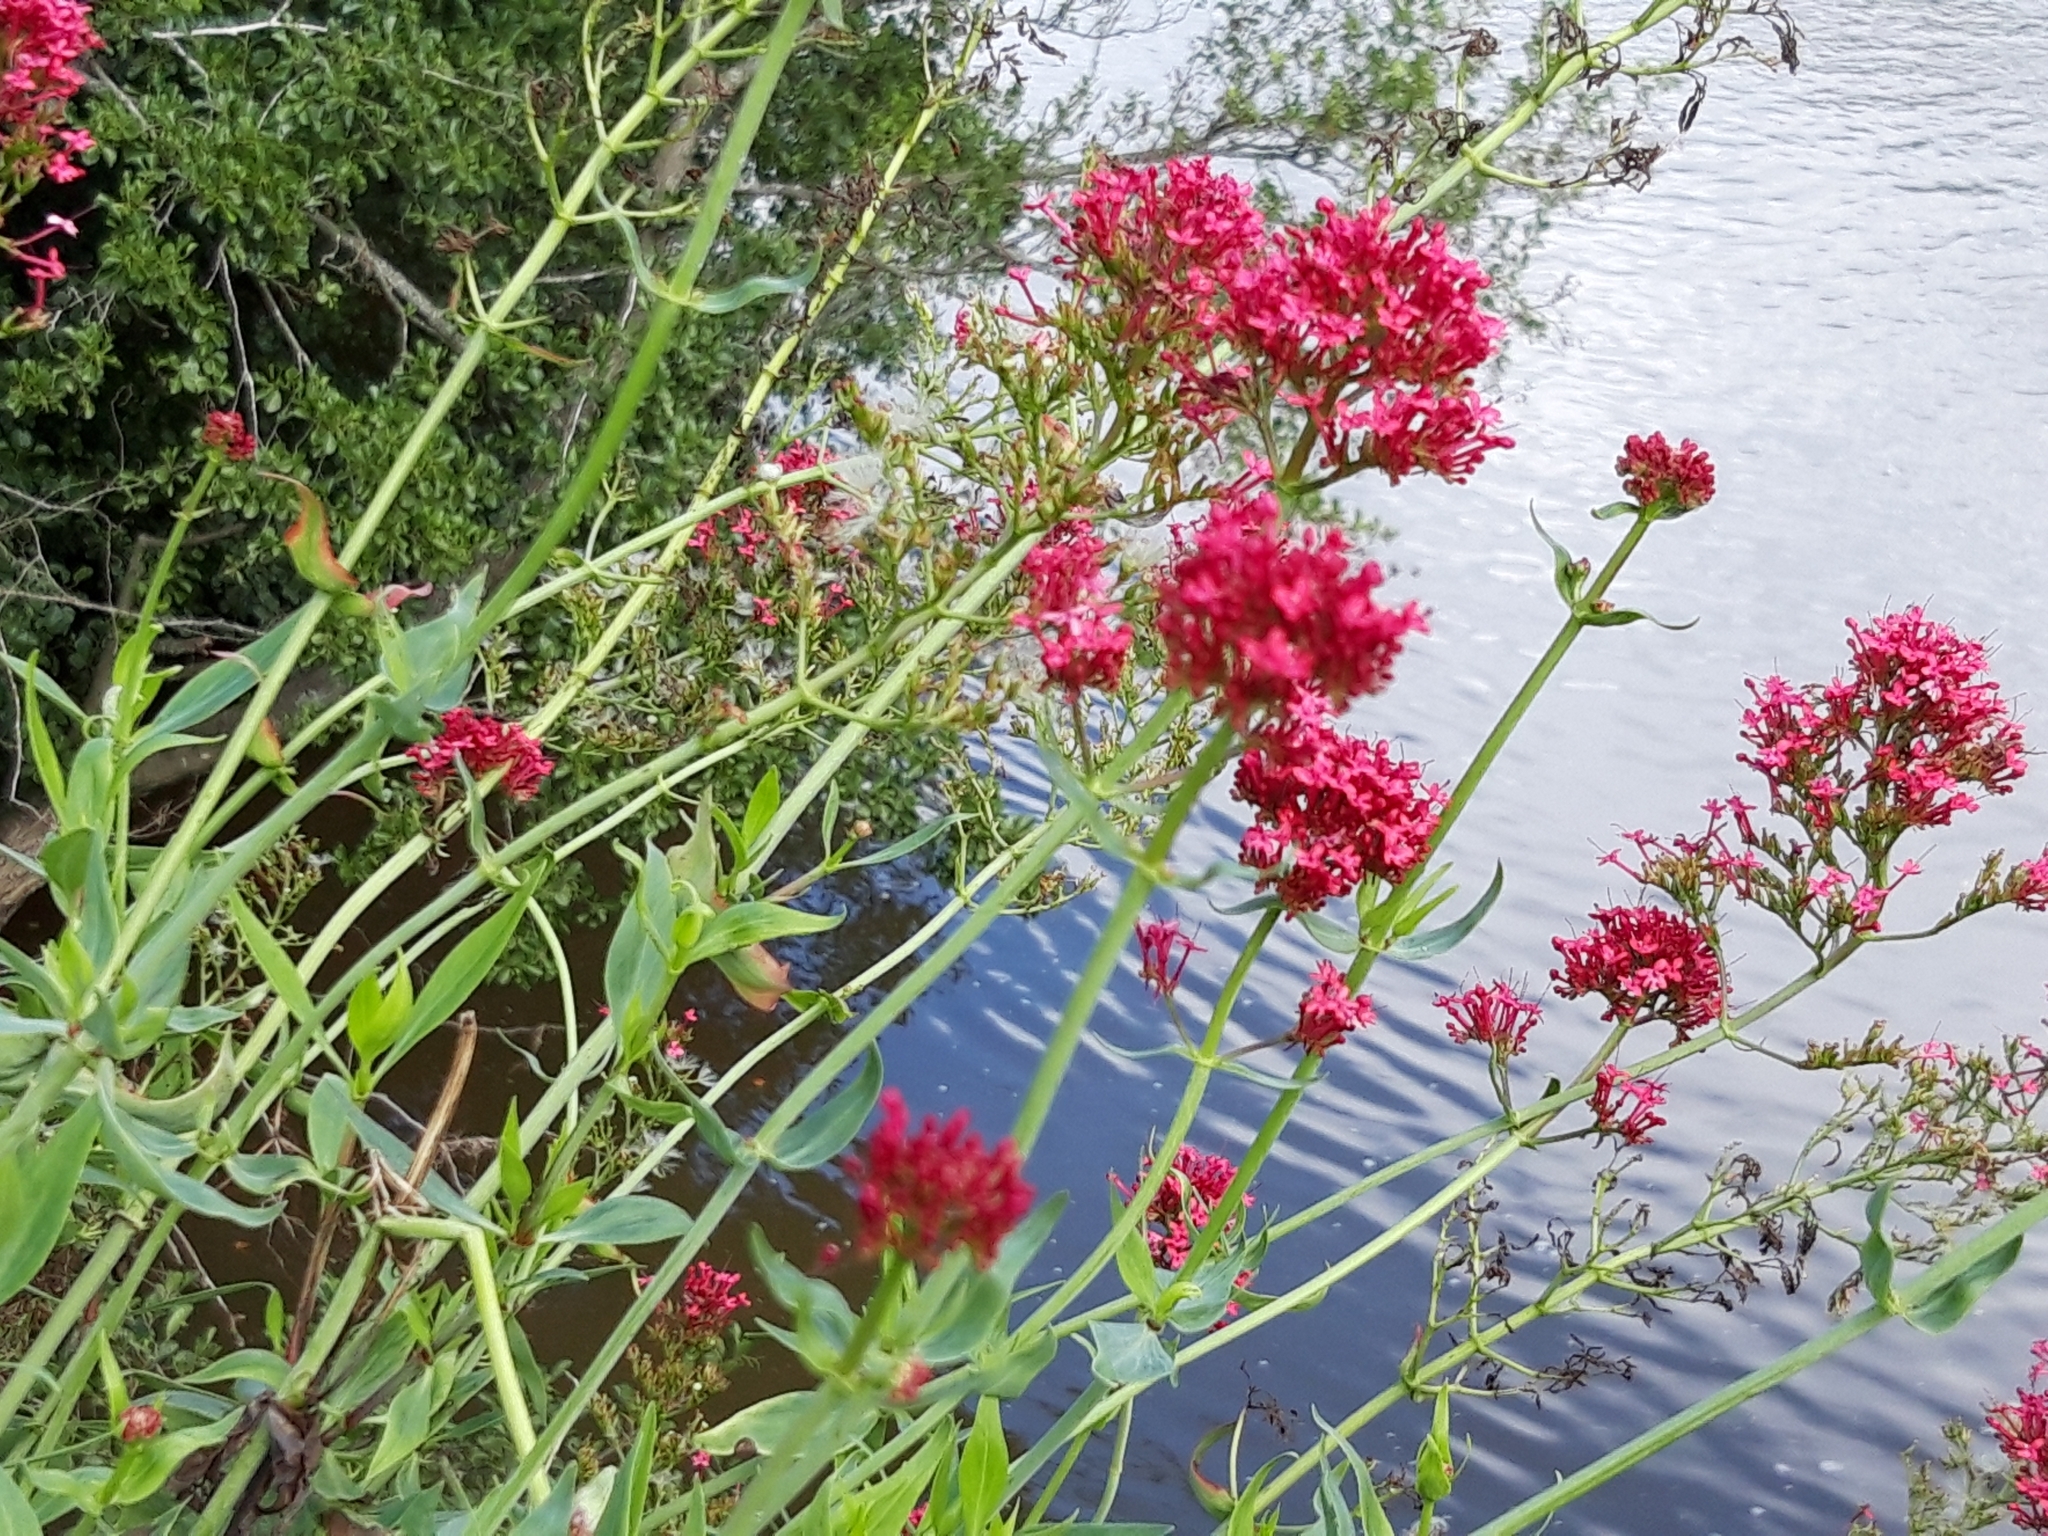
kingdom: Plantae
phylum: Tracheophyta
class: Magnoliopsida
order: Dipsacales
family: Caprifoliaceae
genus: Centranthus
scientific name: Centranthus ruber
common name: Red valerian
